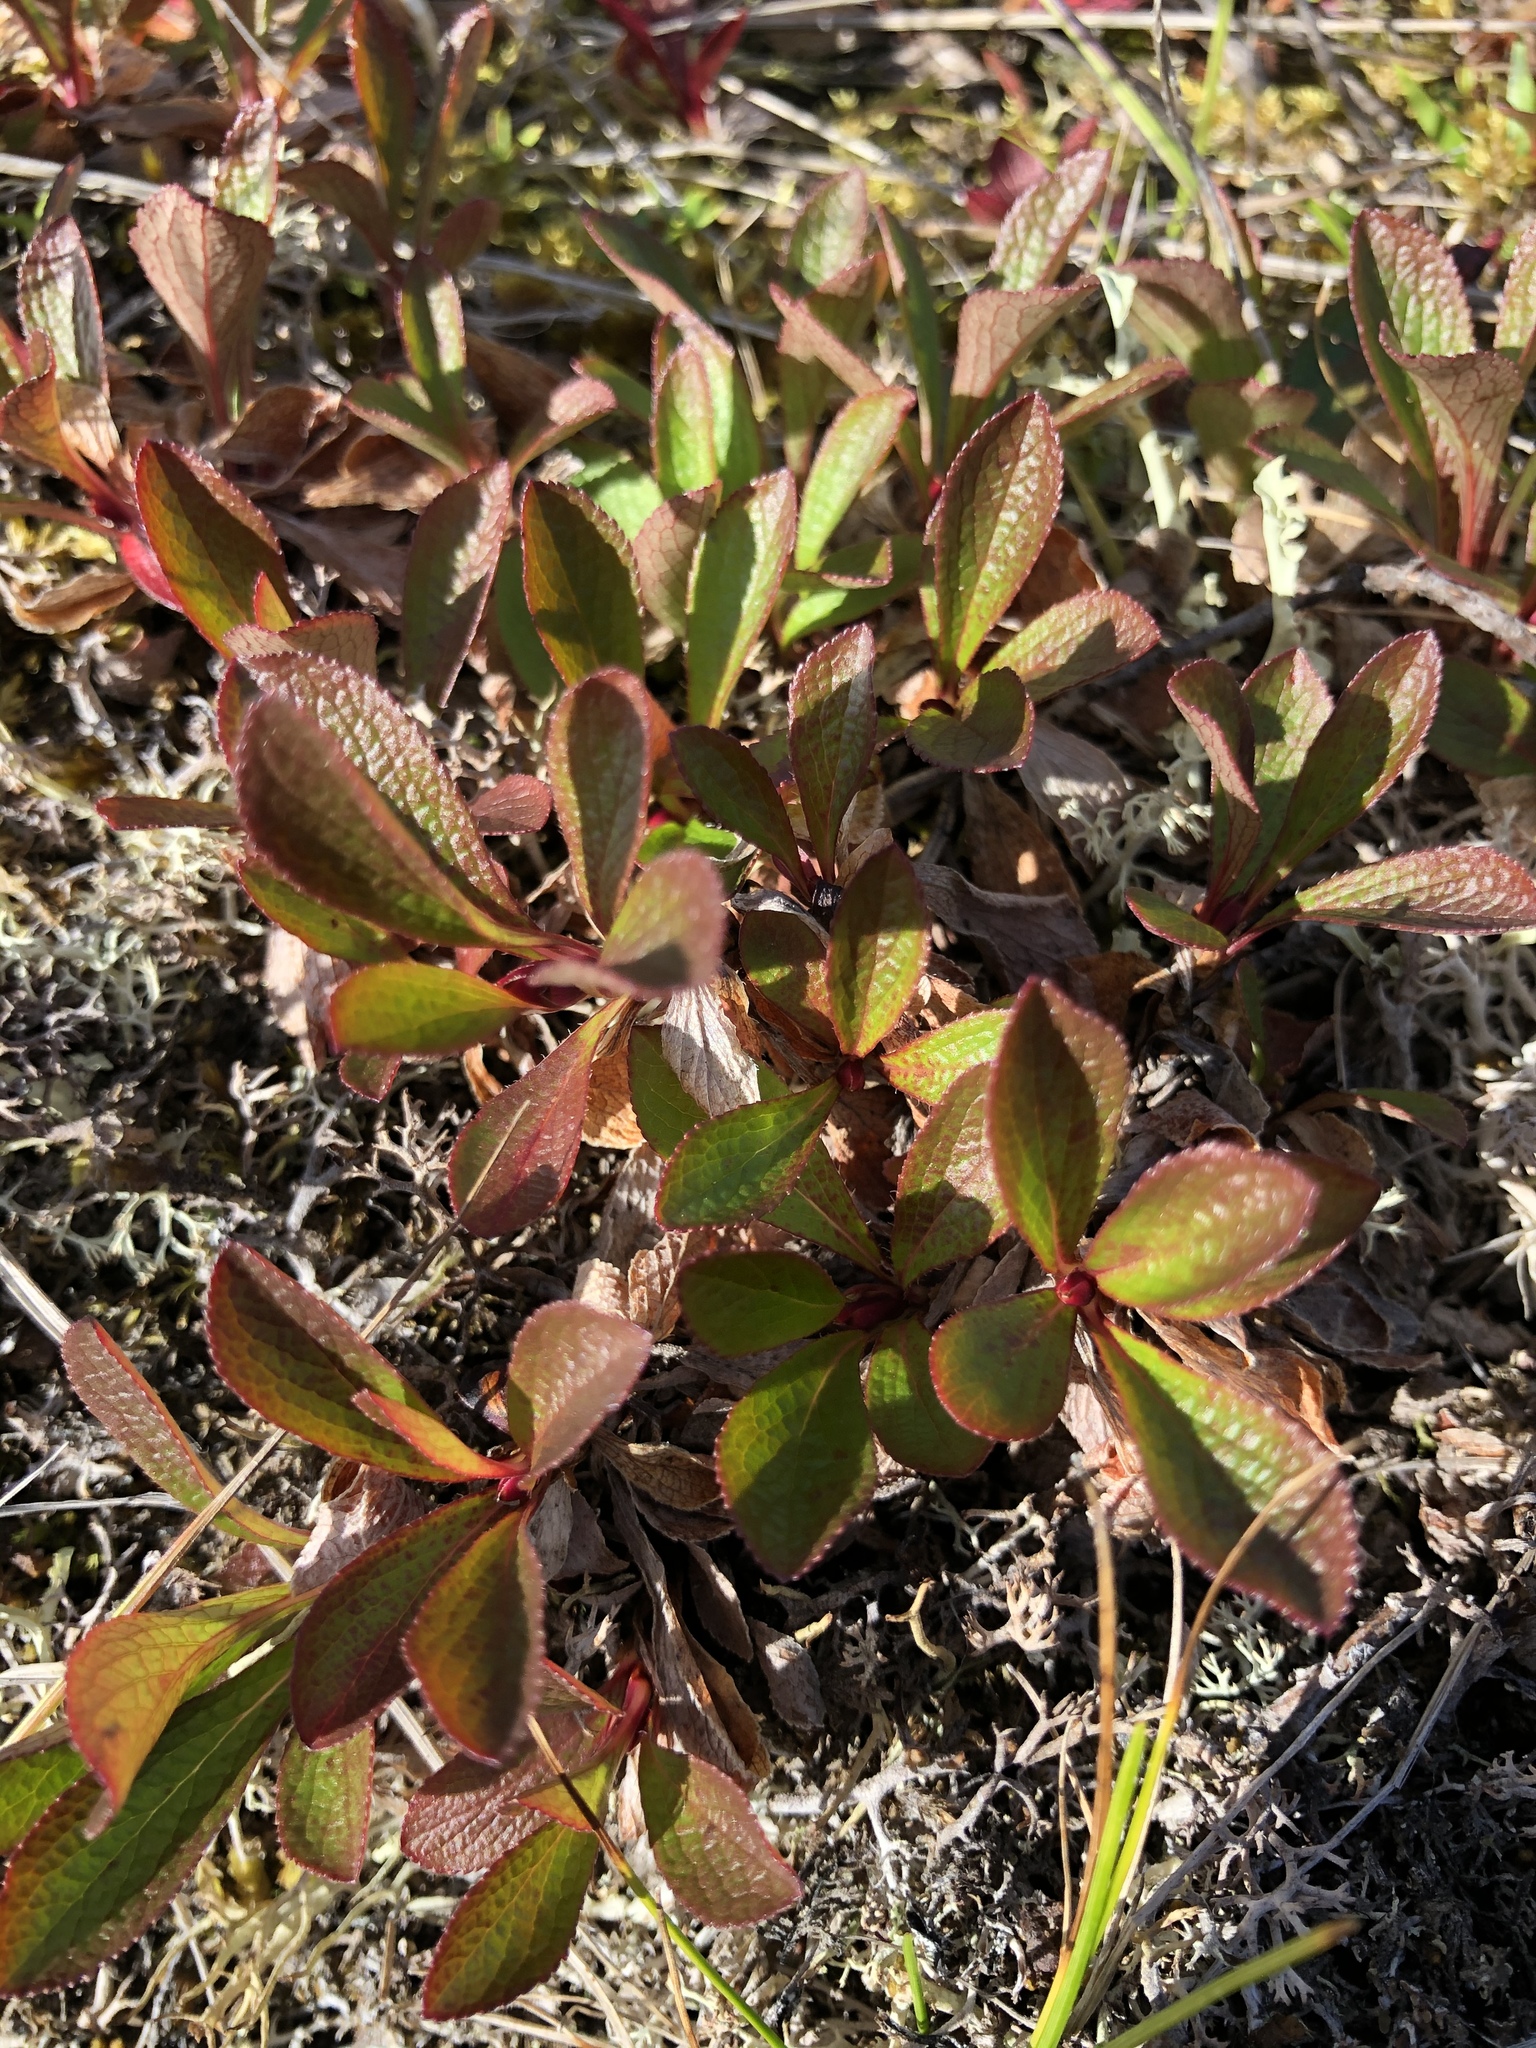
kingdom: Plantae
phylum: Tracheophyta
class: Magnoliopsida
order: Ericales
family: Ericaceae
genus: Arctostaphylos
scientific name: Arctostaphylos alpinus
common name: Alpine bearberry
